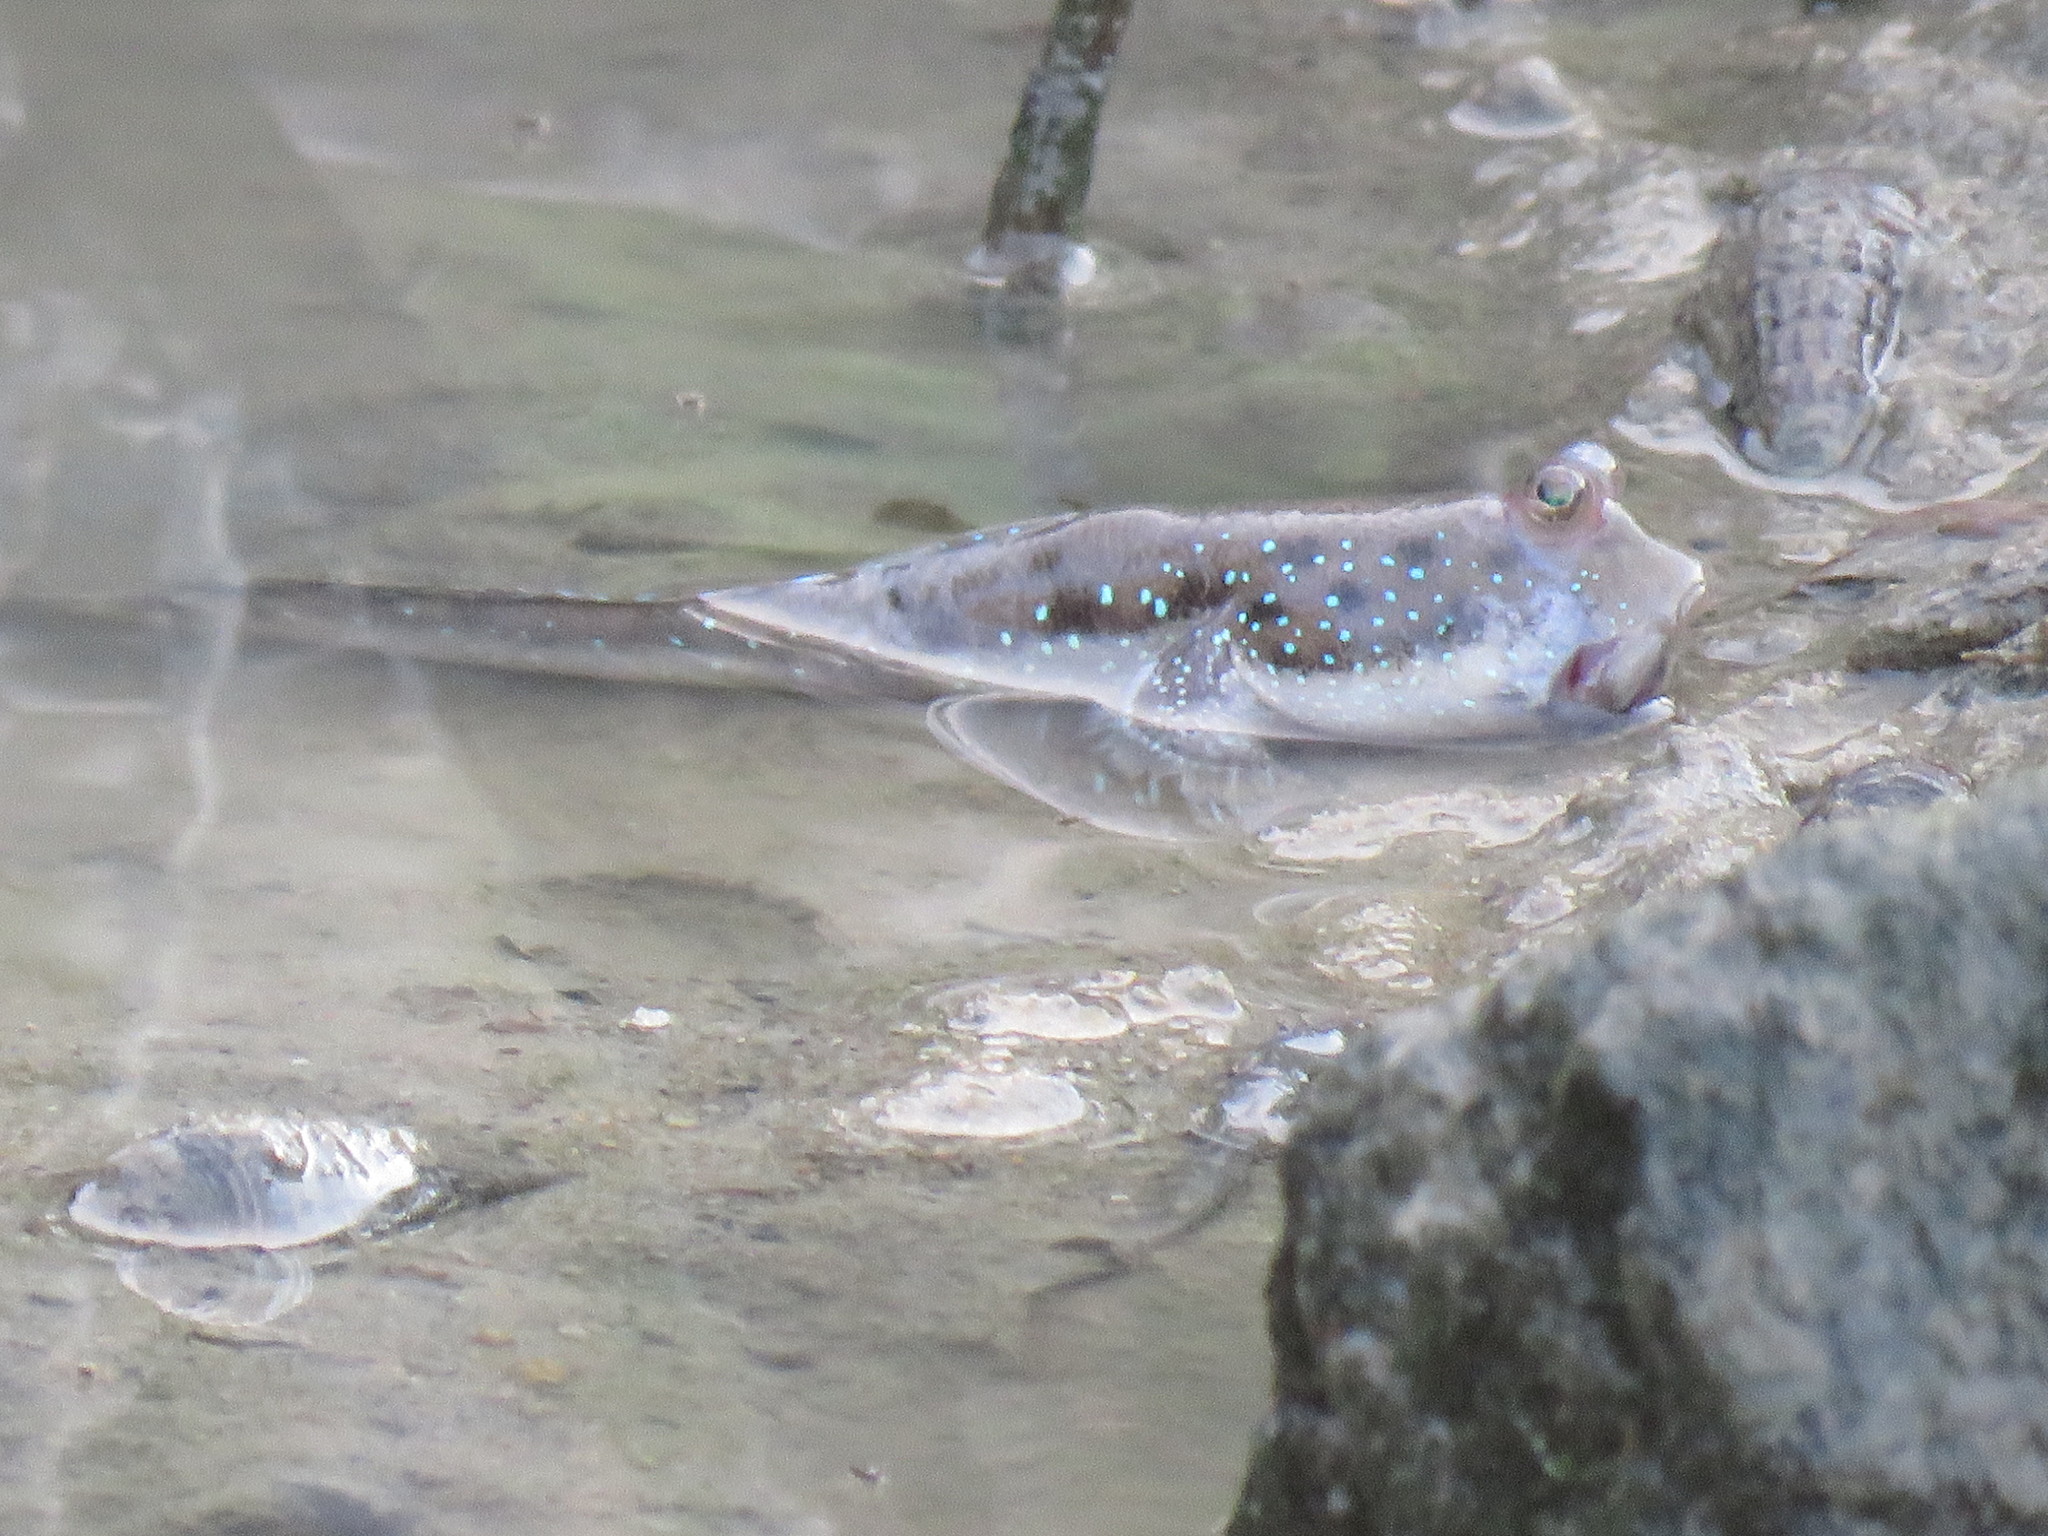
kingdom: Animalia
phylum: Chordata
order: Perciformes
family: Gobiidae
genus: Boleophthalmus
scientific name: Boleophthalmus boddarti
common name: Boddart's goggle-eyed goby
